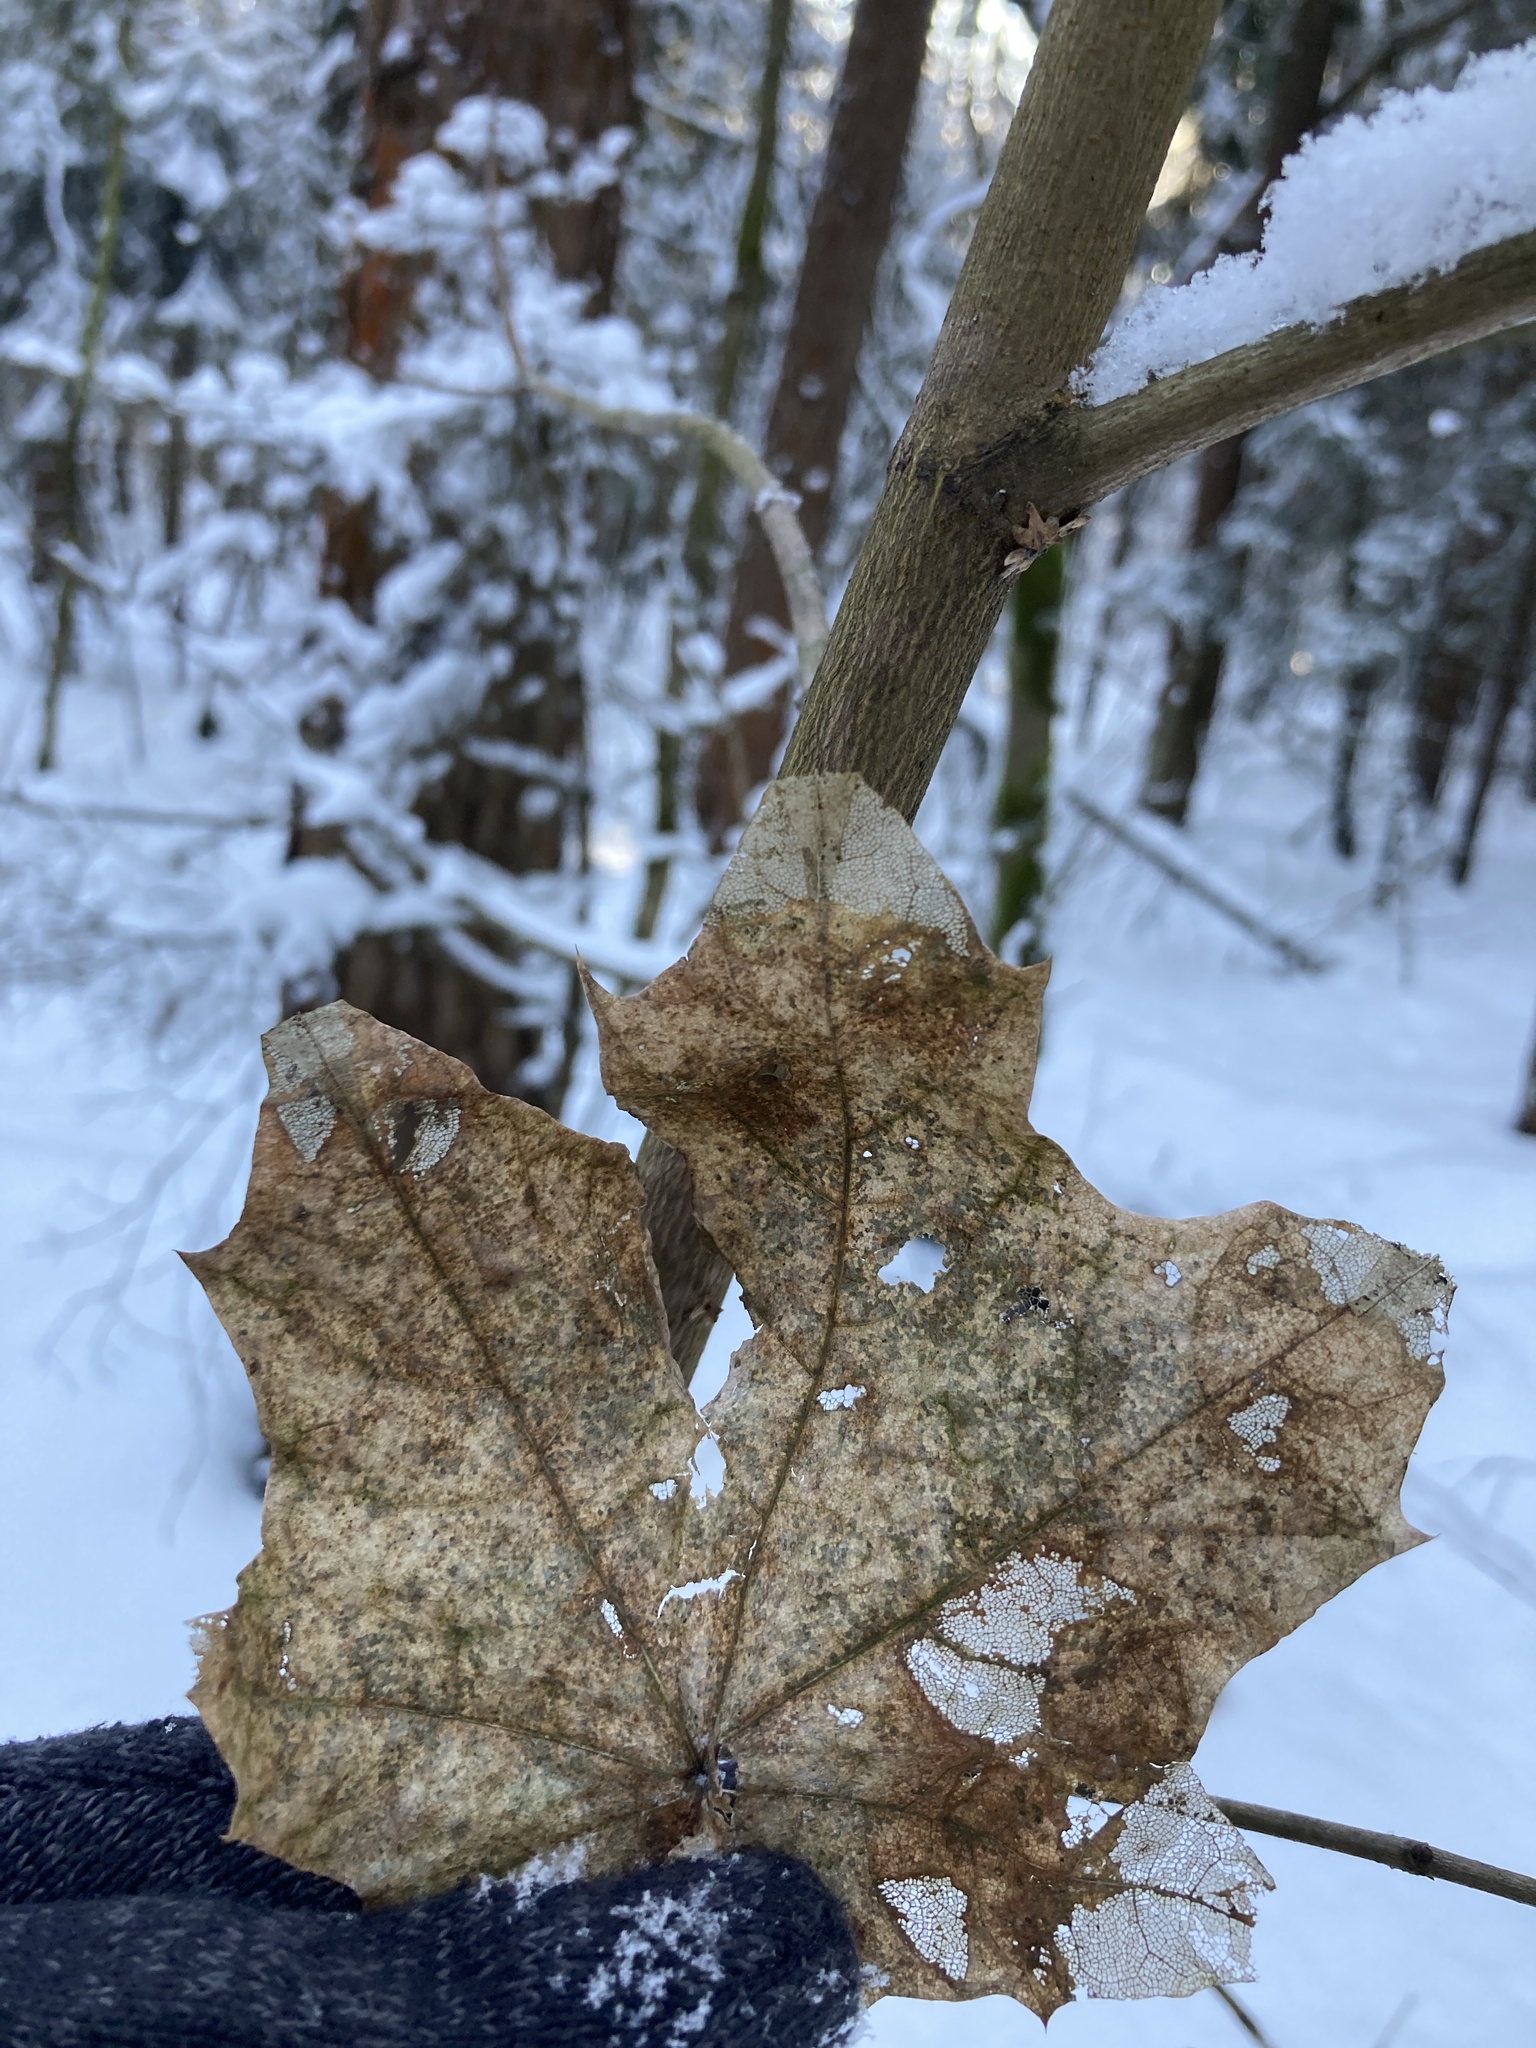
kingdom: Plantae
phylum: Tracheophyta
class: Magnoliopsida
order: Sapindales
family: Sapindaceae
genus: Acer
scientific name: Acer platanoides
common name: Norway maple
